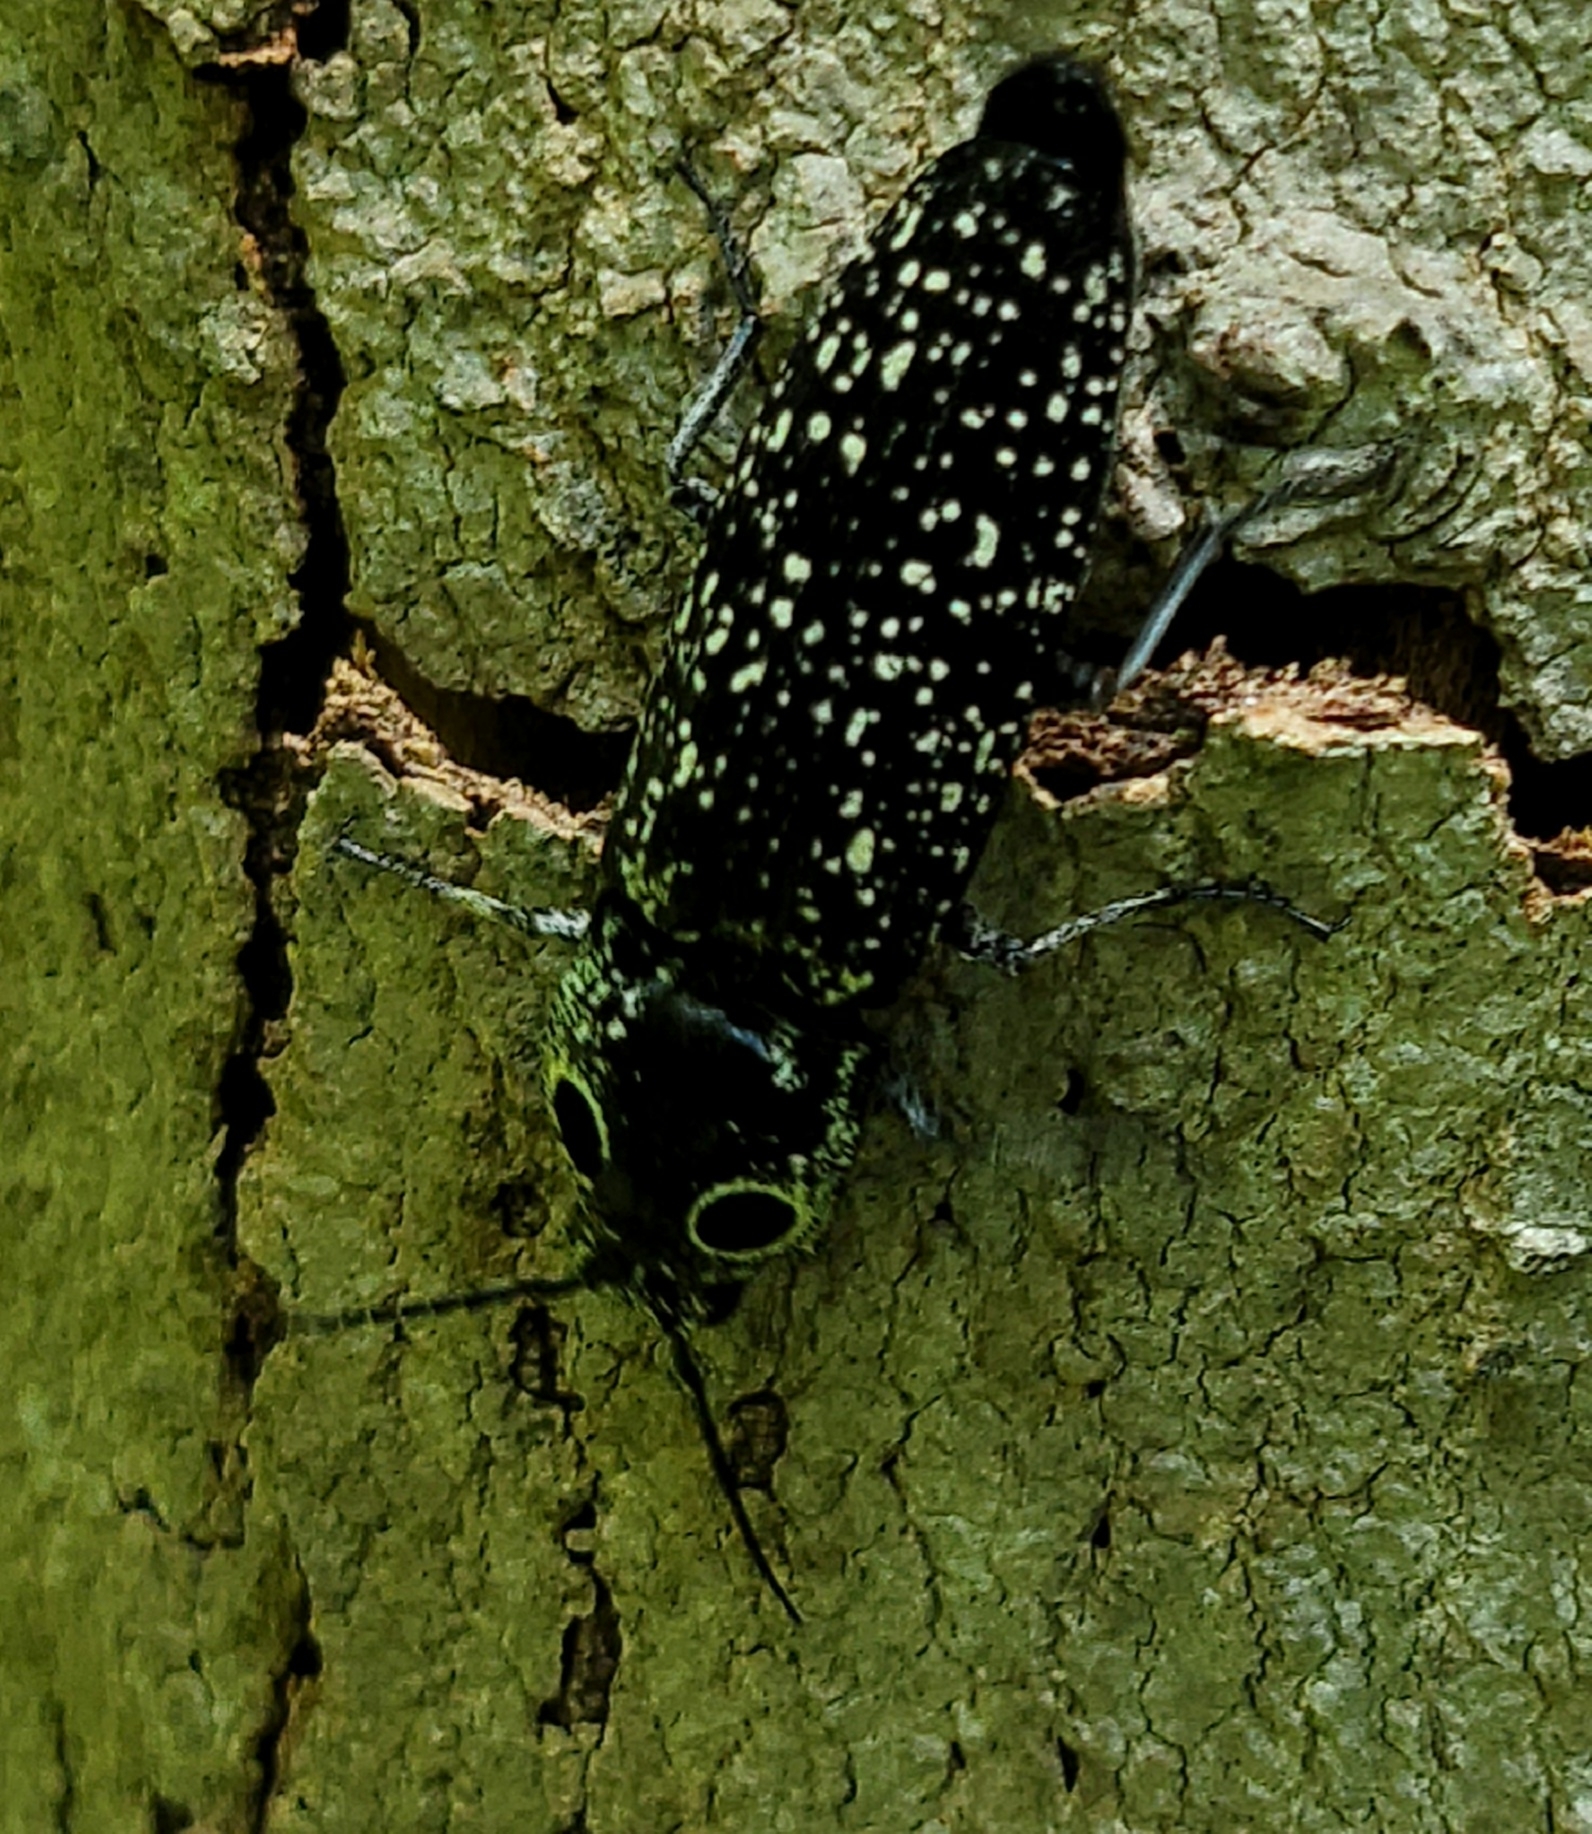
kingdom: Animalia
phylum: Arthropoda
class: Insecta
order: Coleoptera
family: Elateridae
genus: Alaus
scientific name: Alaus oculatus
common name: Eastern eyed click beetle
